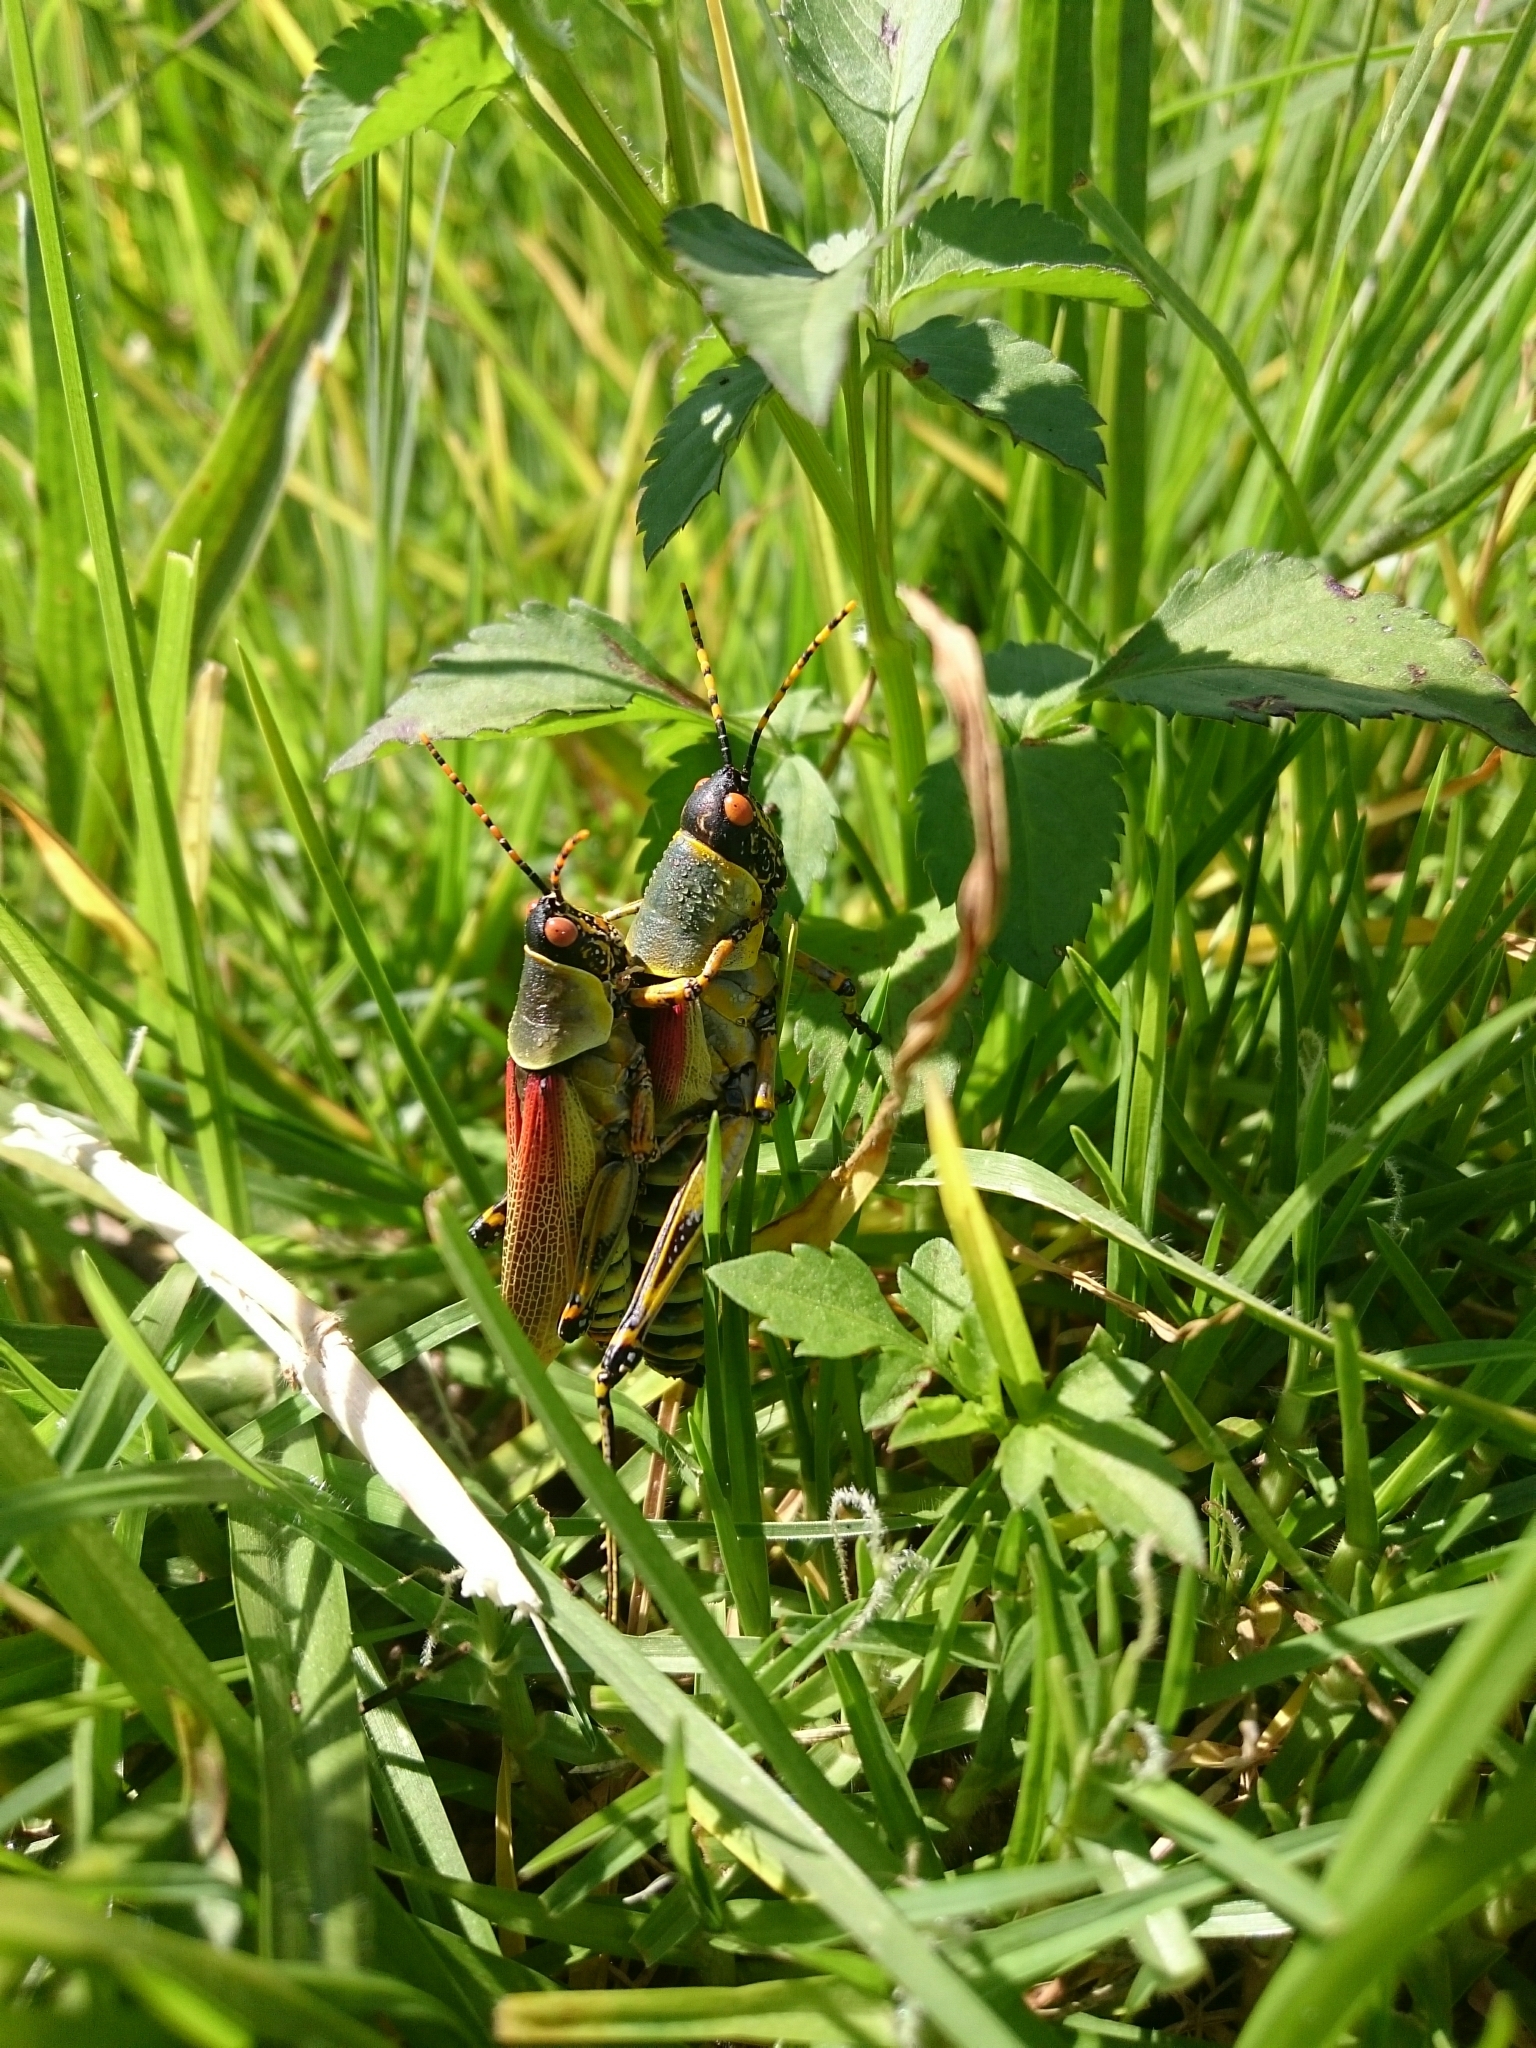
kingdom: Animalia
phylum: Arthropoda
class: Insecta
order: Orthoptera
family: Pyrgomorphidae
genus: Zonocerus
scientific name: Zonocerus elegans
